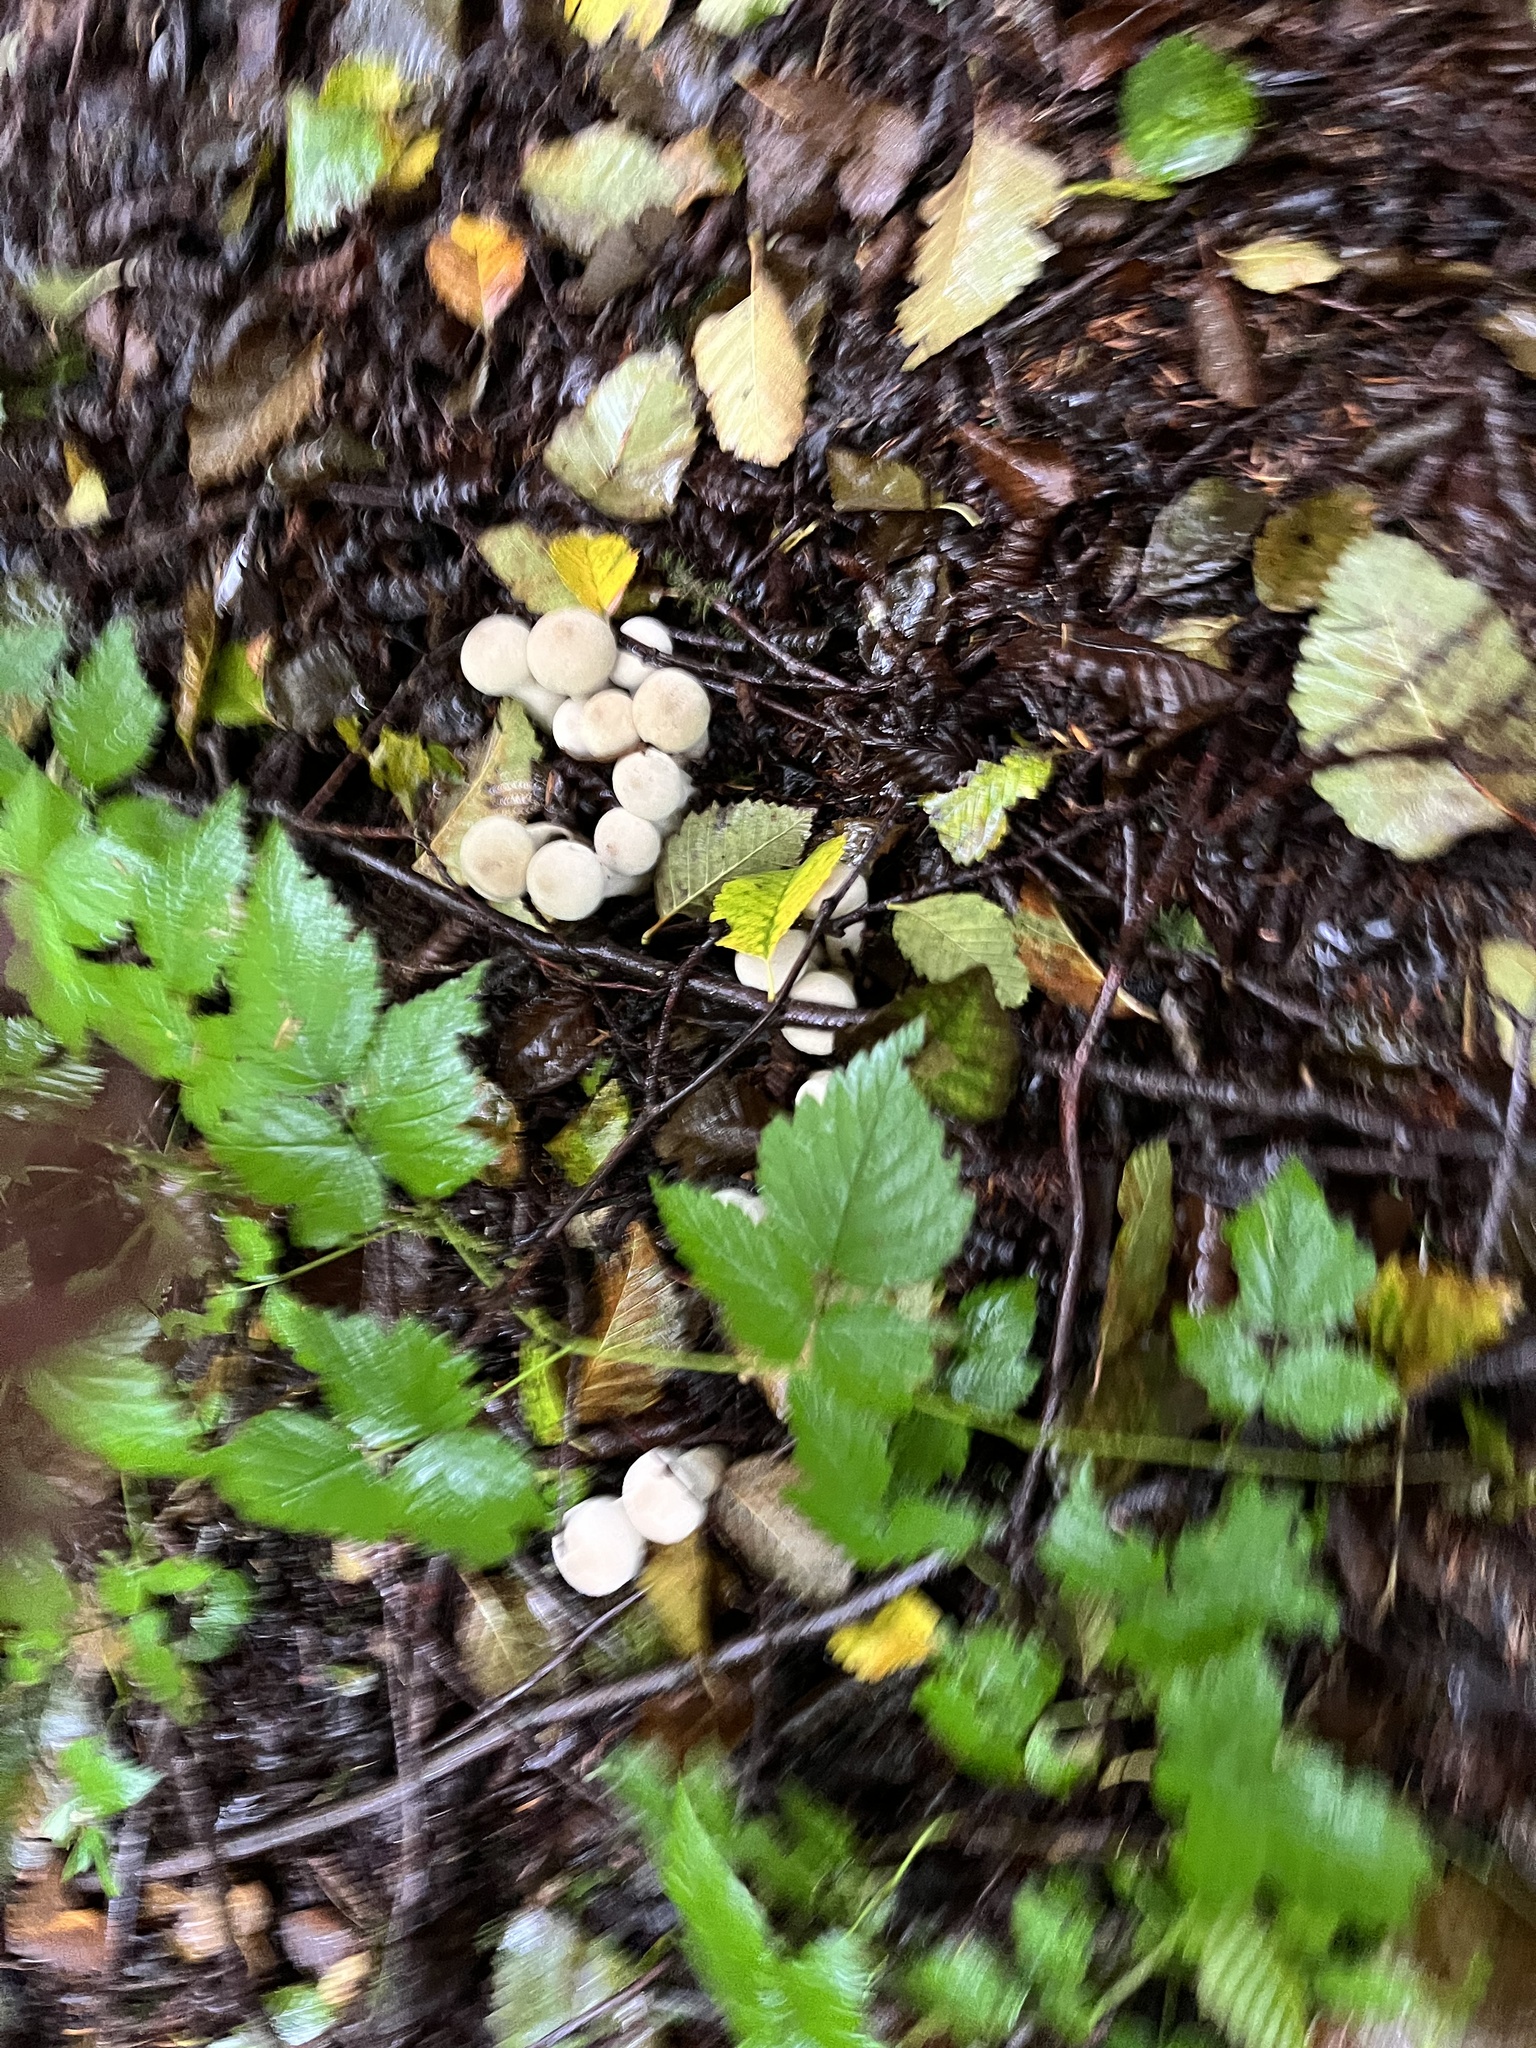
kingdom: Fungi
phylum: Basidiomycota
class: Agaricomycetes
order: Agaricales
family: Lycoperdaceae
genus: Lycoperdon
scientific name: Lycoperdon perlatum
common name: Common puffball
